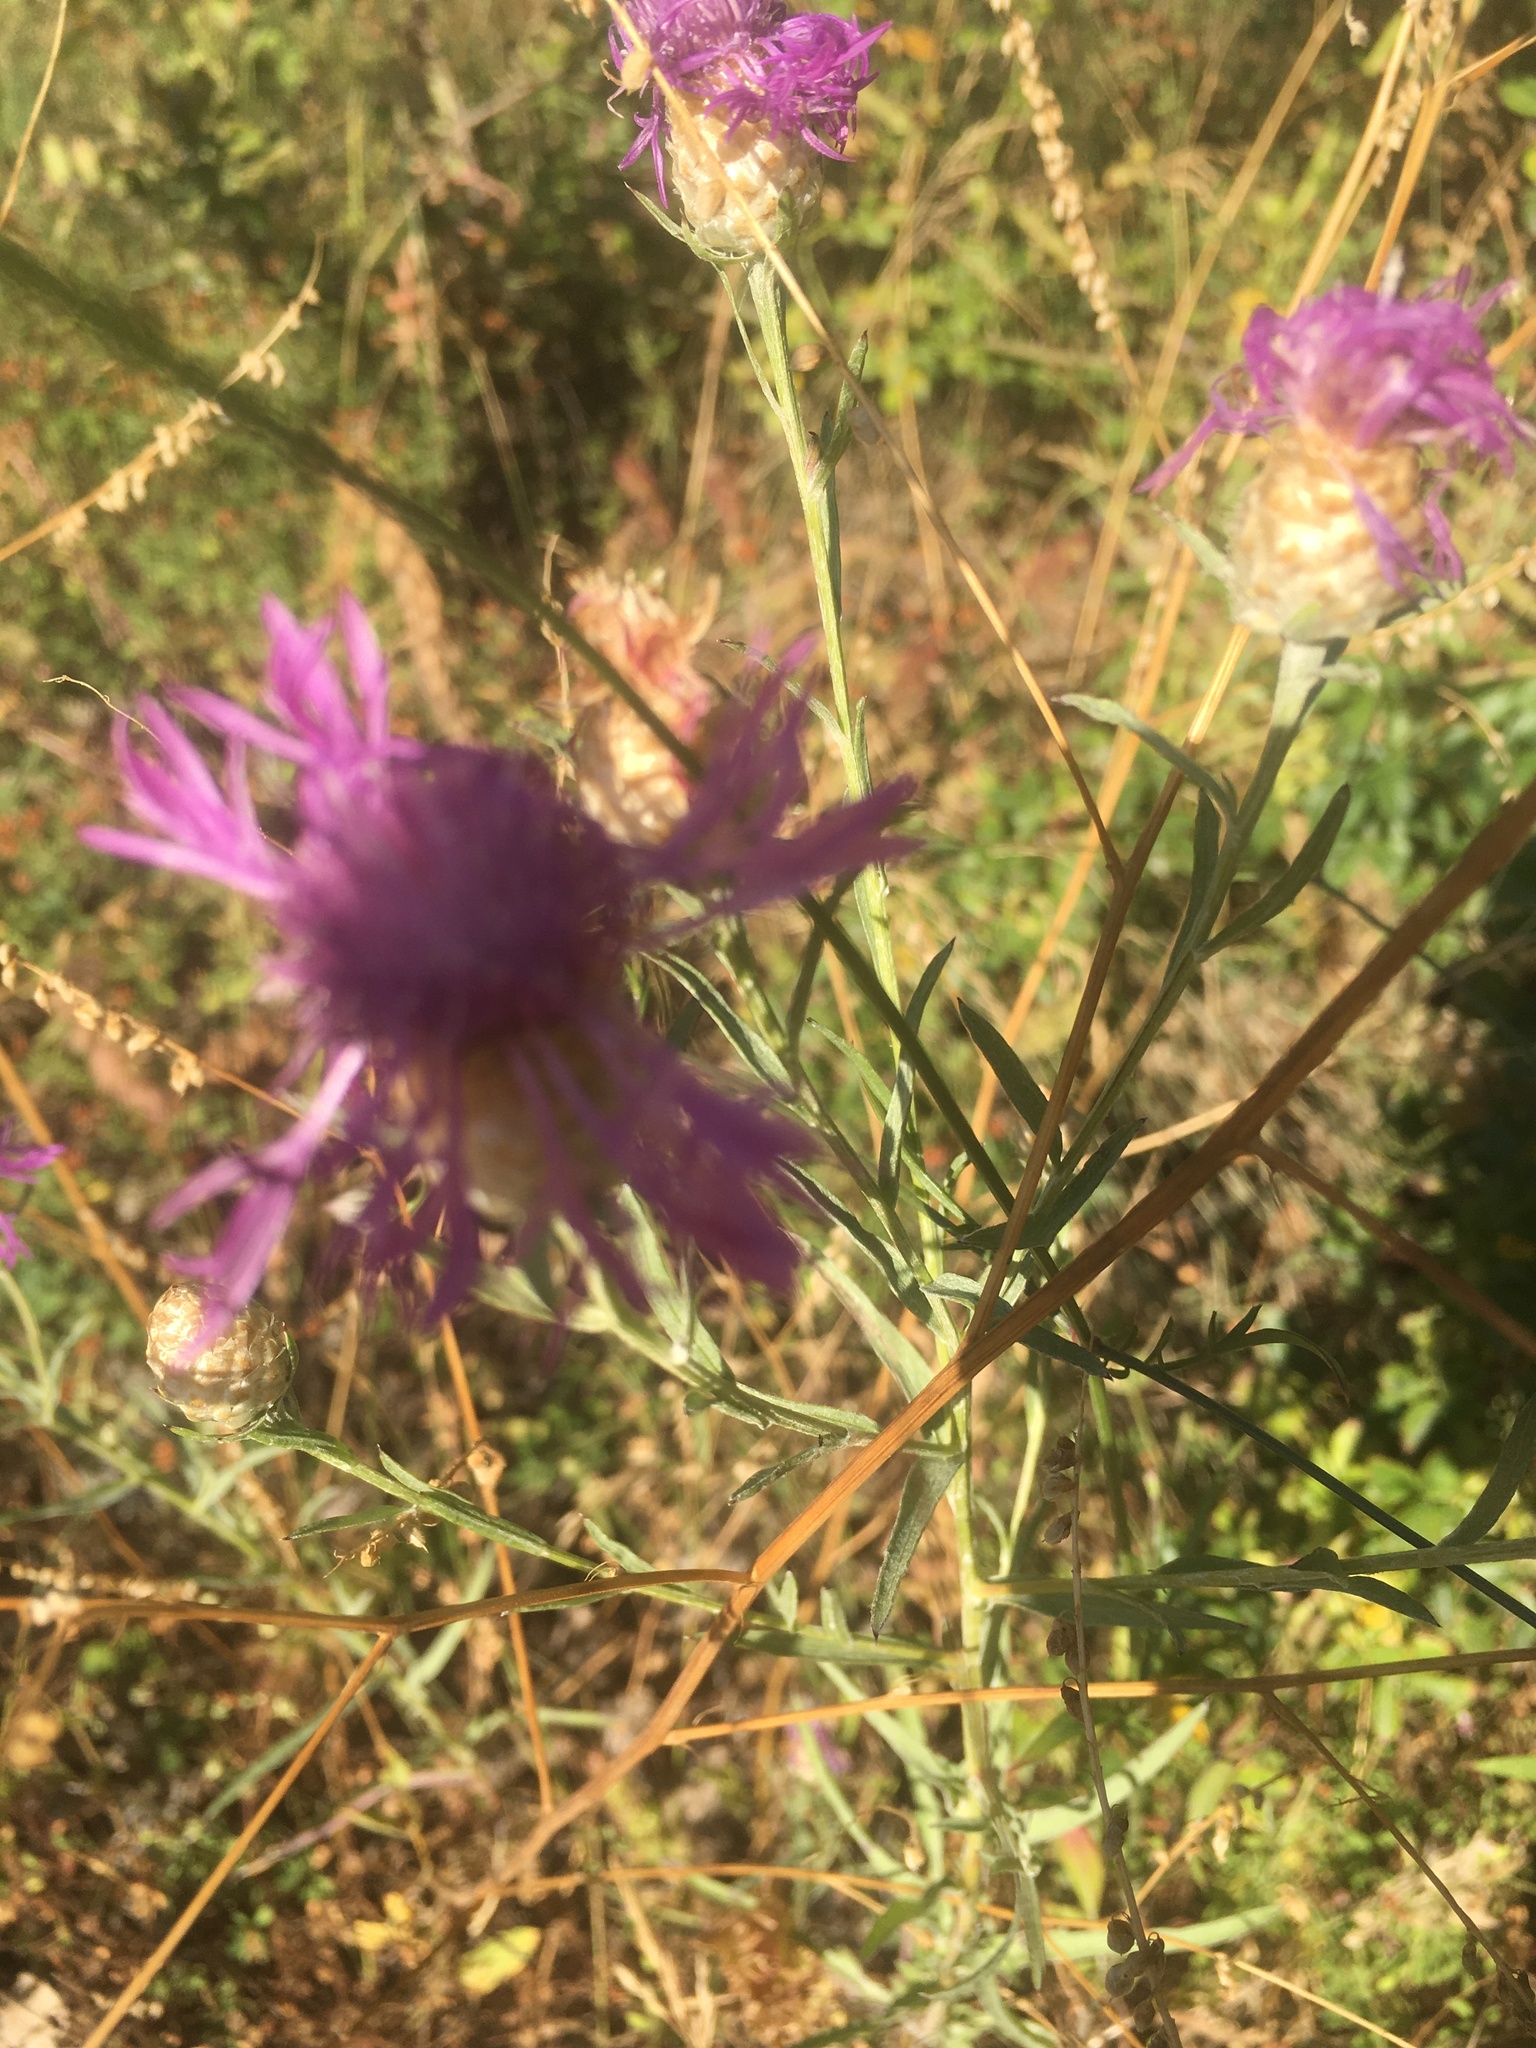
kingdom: Plantae
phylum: Tracheophyta
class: Magnoliopsida
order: Asterales
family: Asteraceae
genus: Centaurea
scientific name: Centaurea jacea
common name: Brown knapweed
